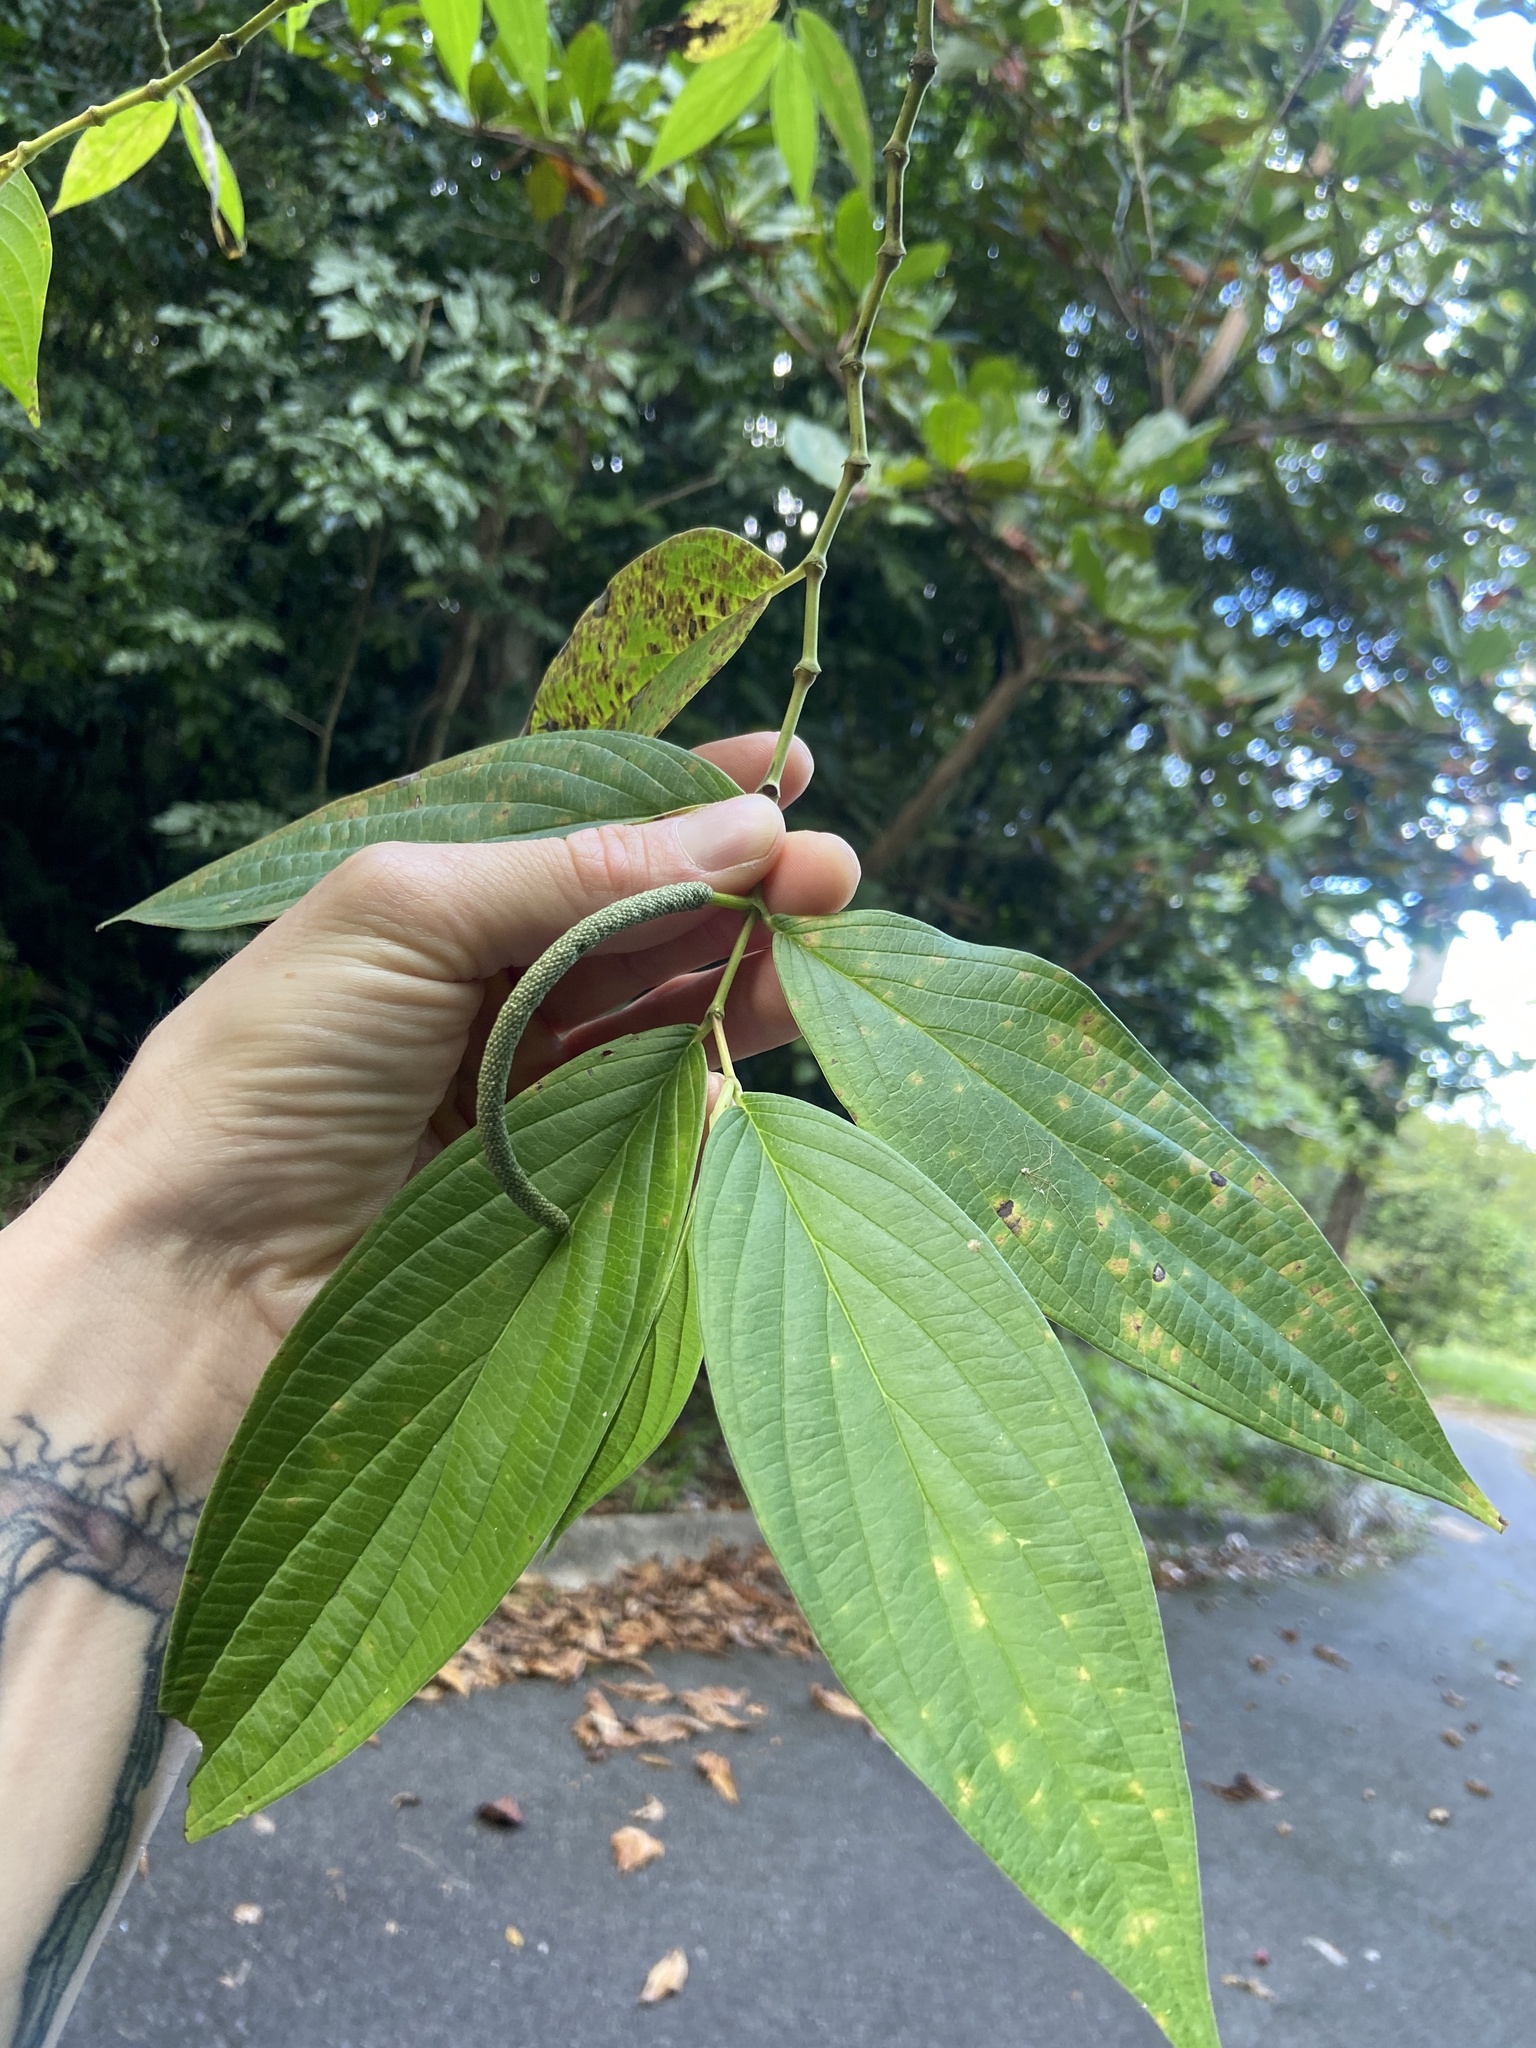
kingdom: Plantae
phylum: Tracheophyta
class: Magnoliopsida
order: Piperales
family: Piperaceae
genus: Piper
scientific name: Piper aduncum
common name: Spiked pepper
